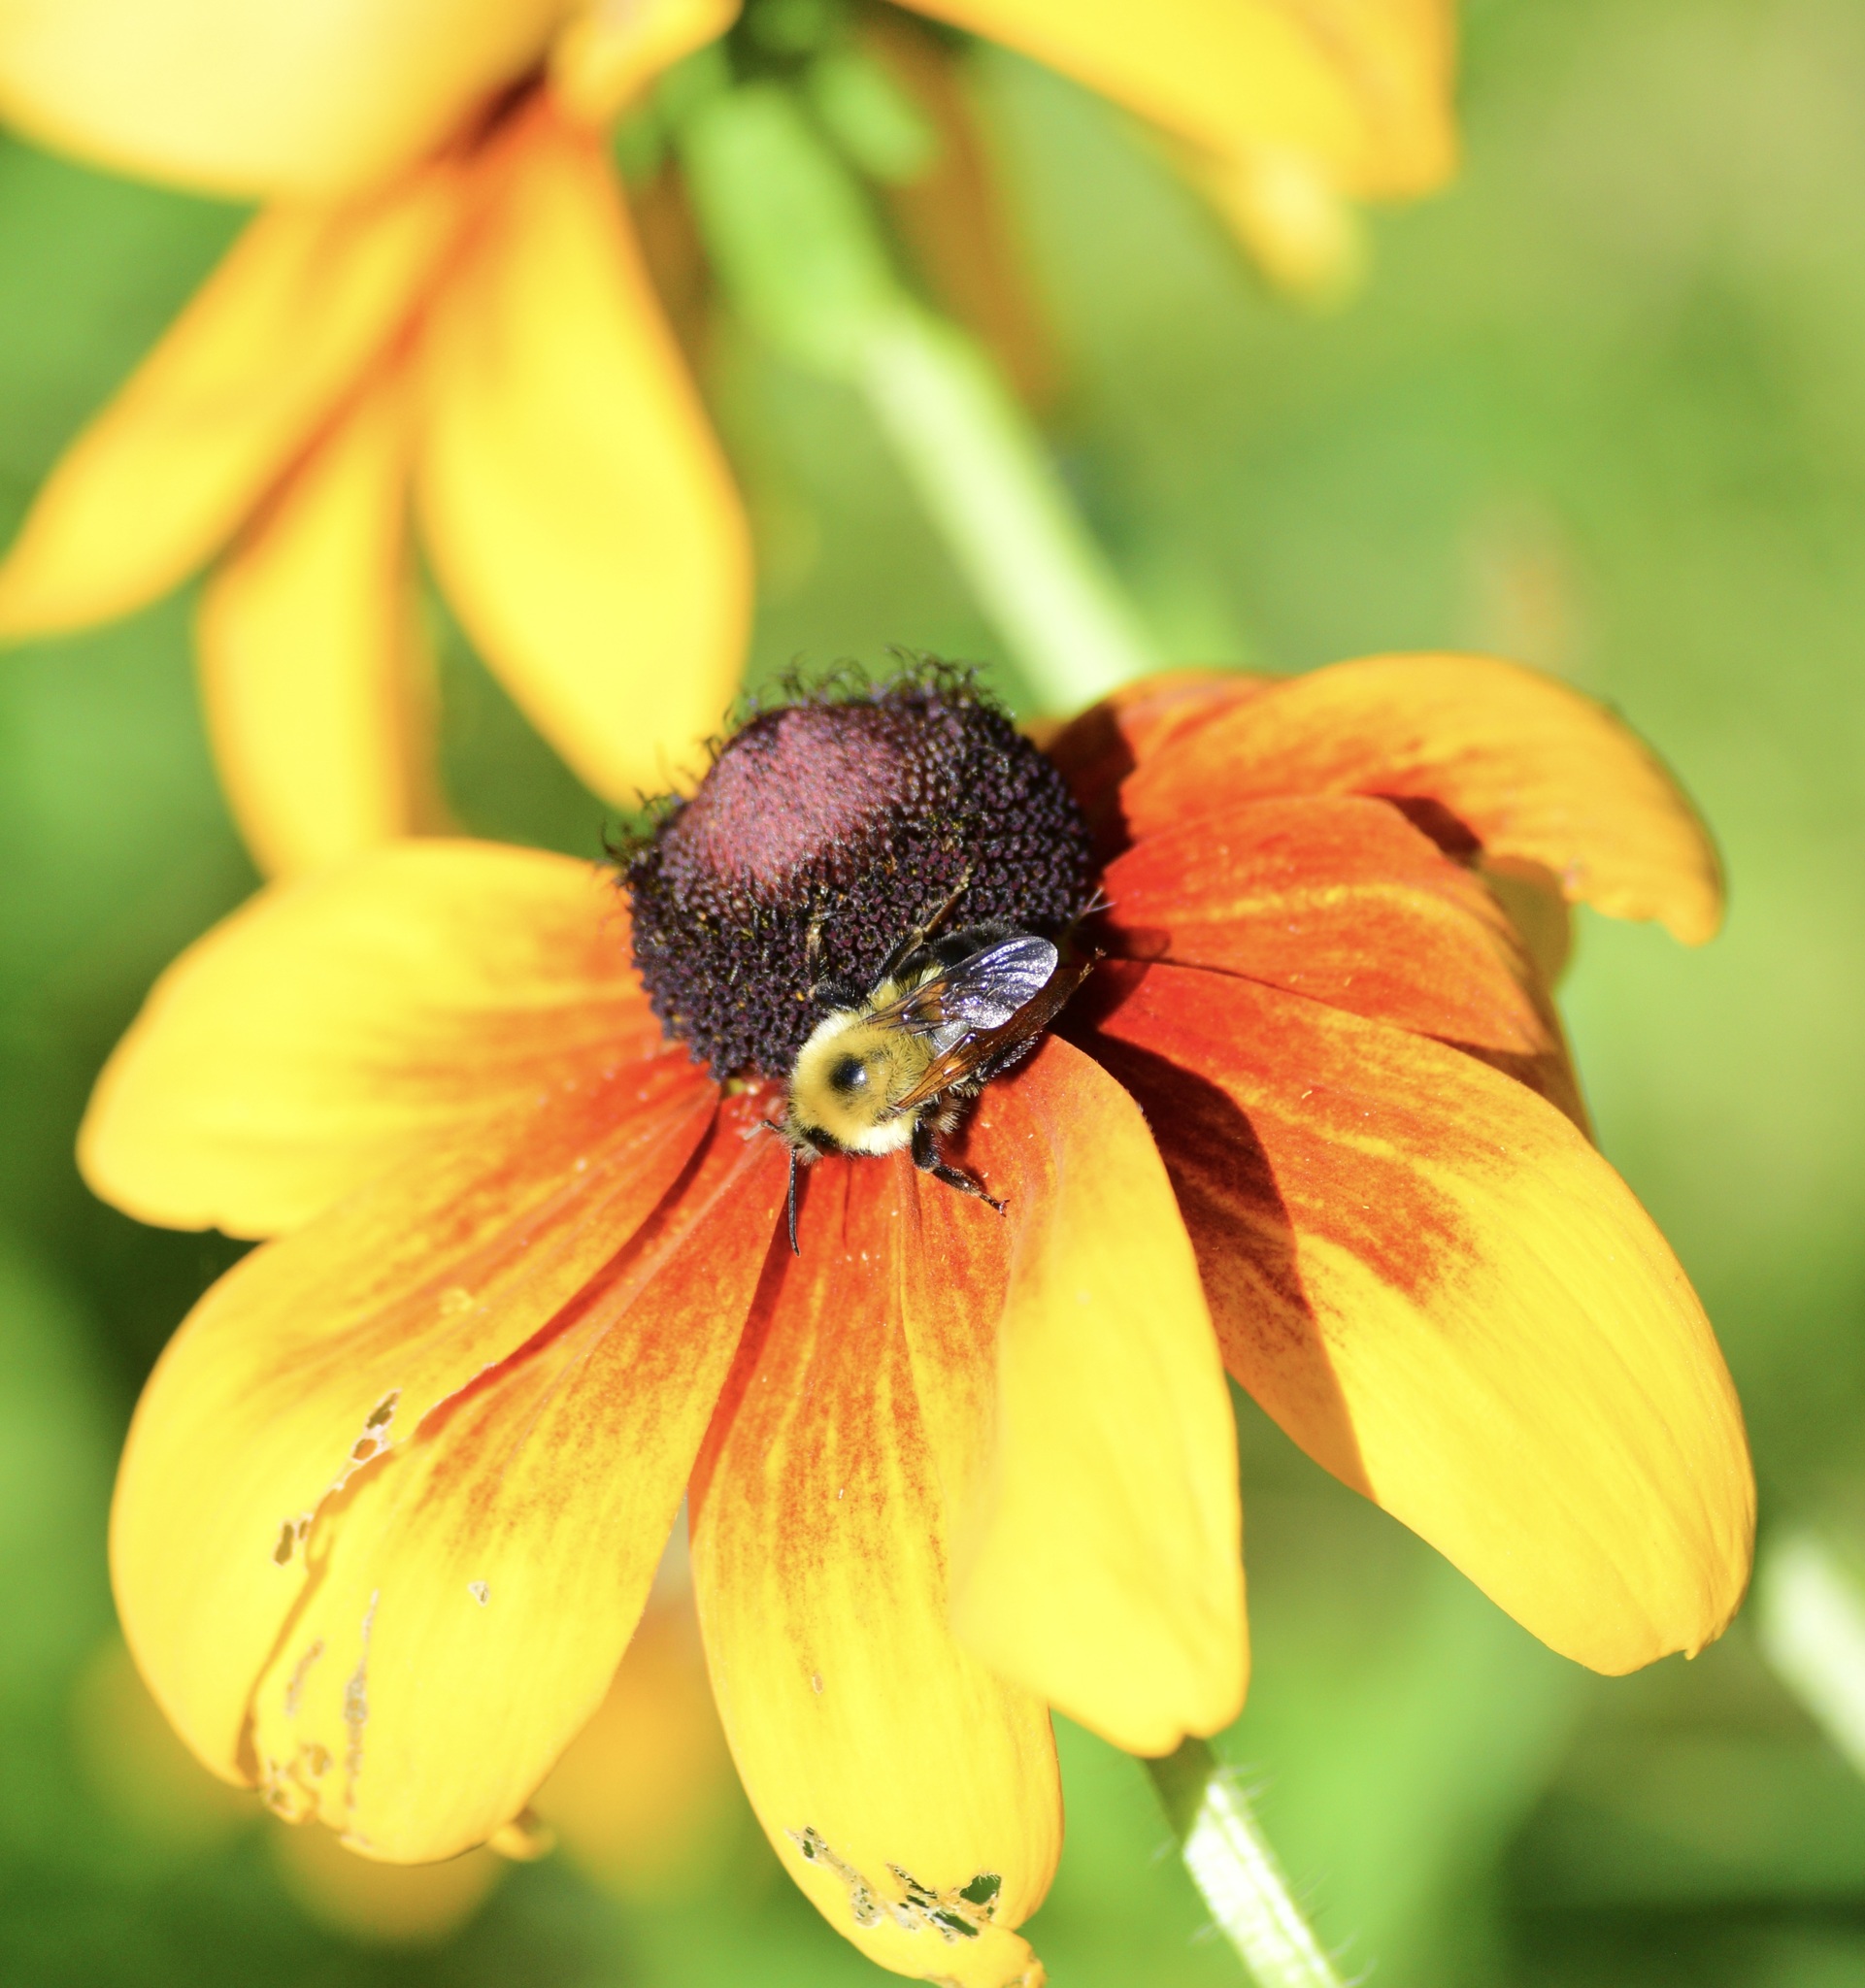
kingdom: Animalia
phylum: Arthropoda
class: Insecta
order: Hymenoptera
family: Apidae
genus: Bombus
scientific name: Bombus bimaculatus
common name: Two-spotted bumble bee
